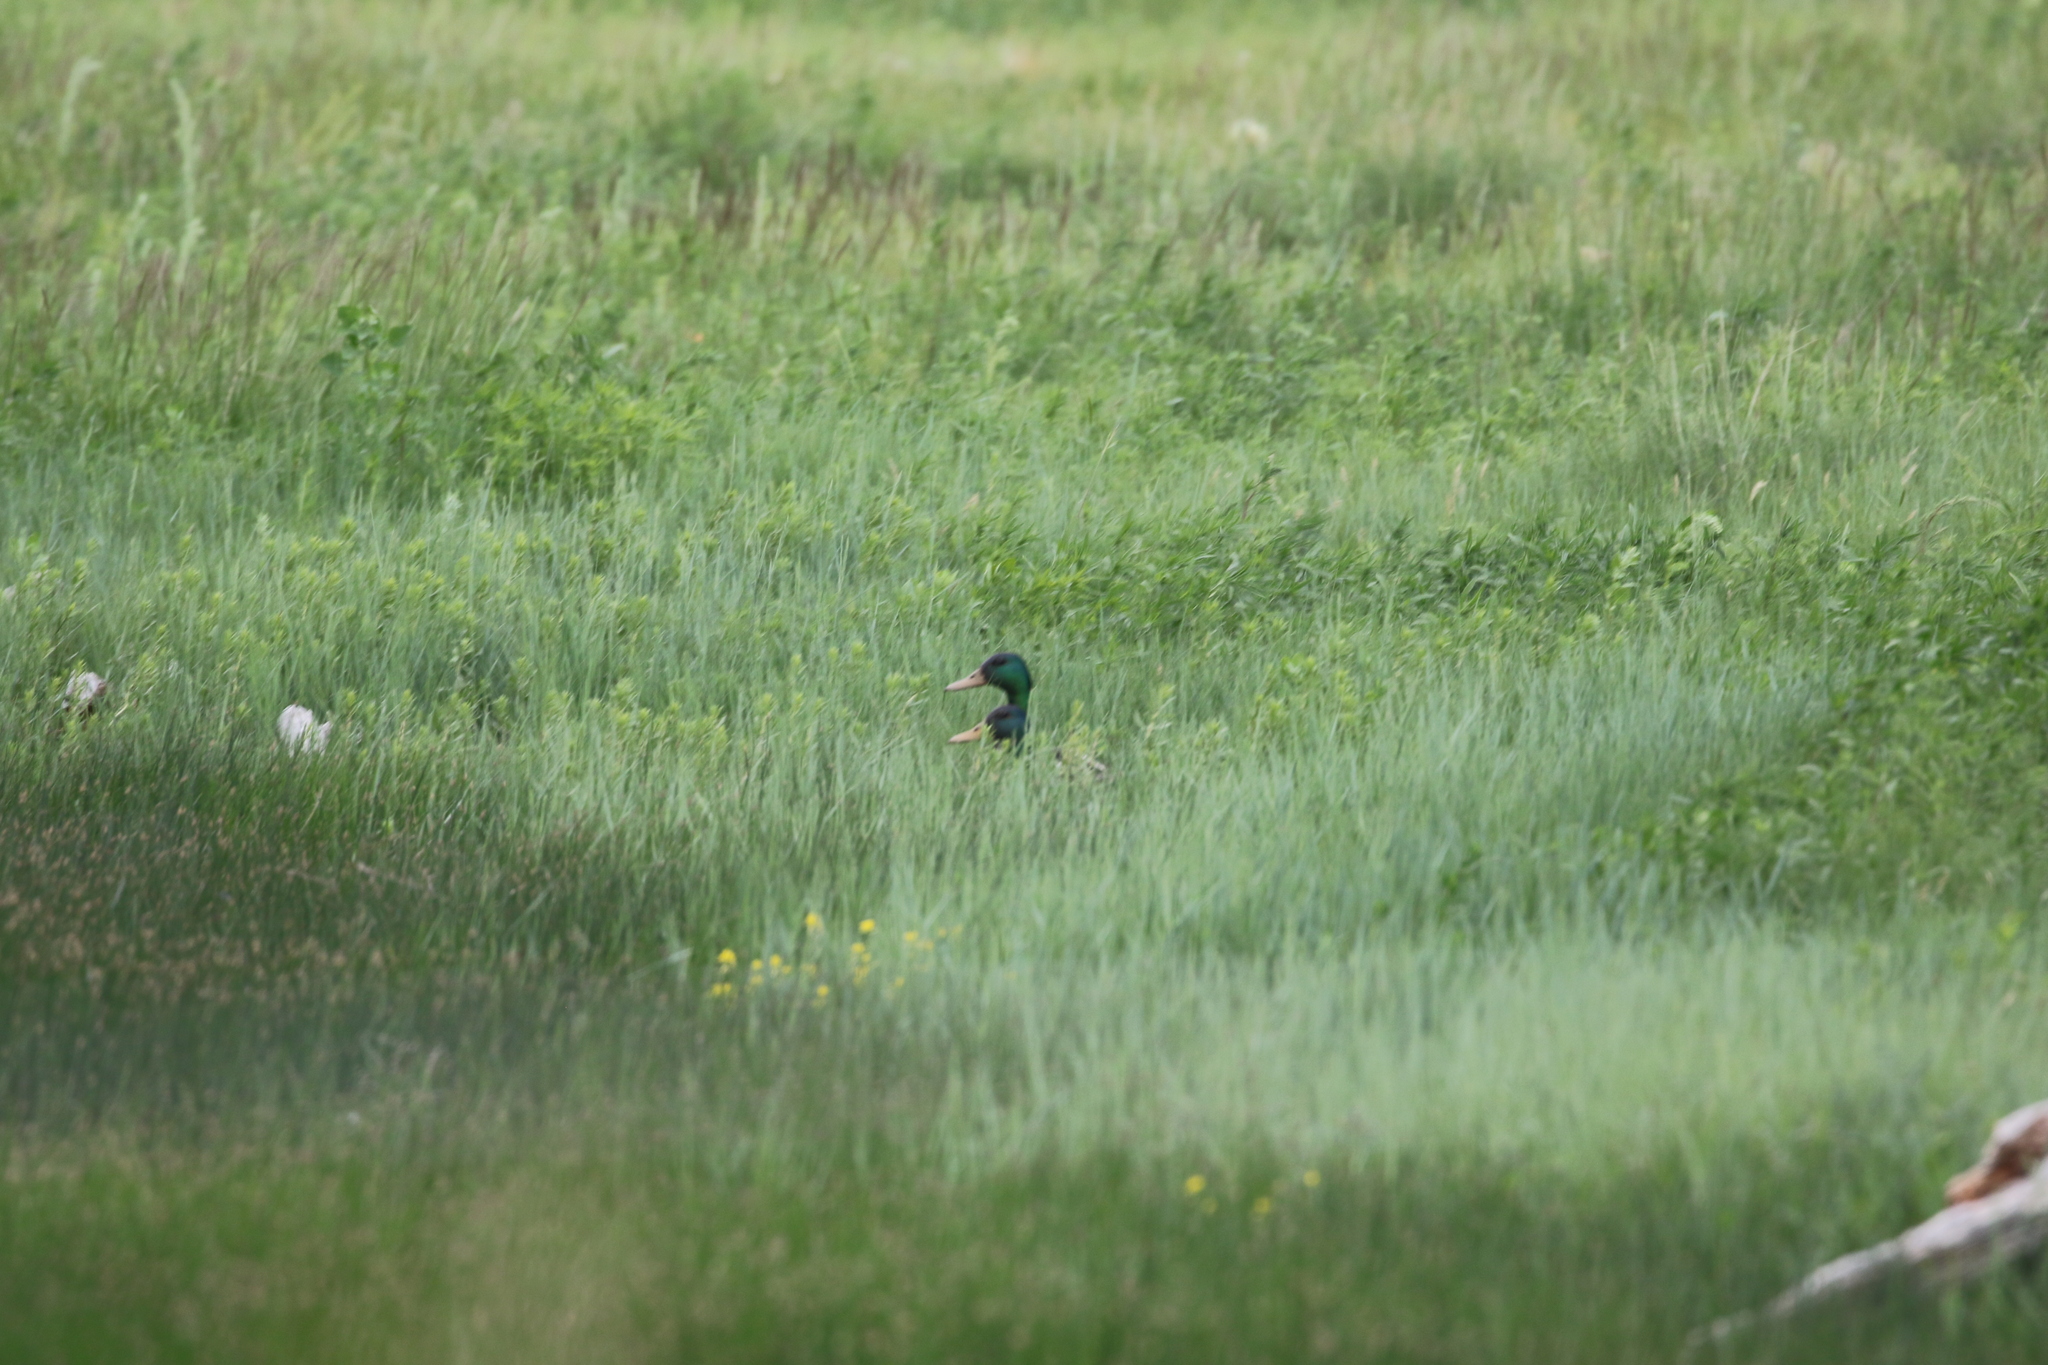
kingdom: Animalia
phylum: Chordata
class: Aves
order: Anseriformes
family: Anatidae
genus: Anas
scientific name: Anas platyrhynchos
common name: Mallard
